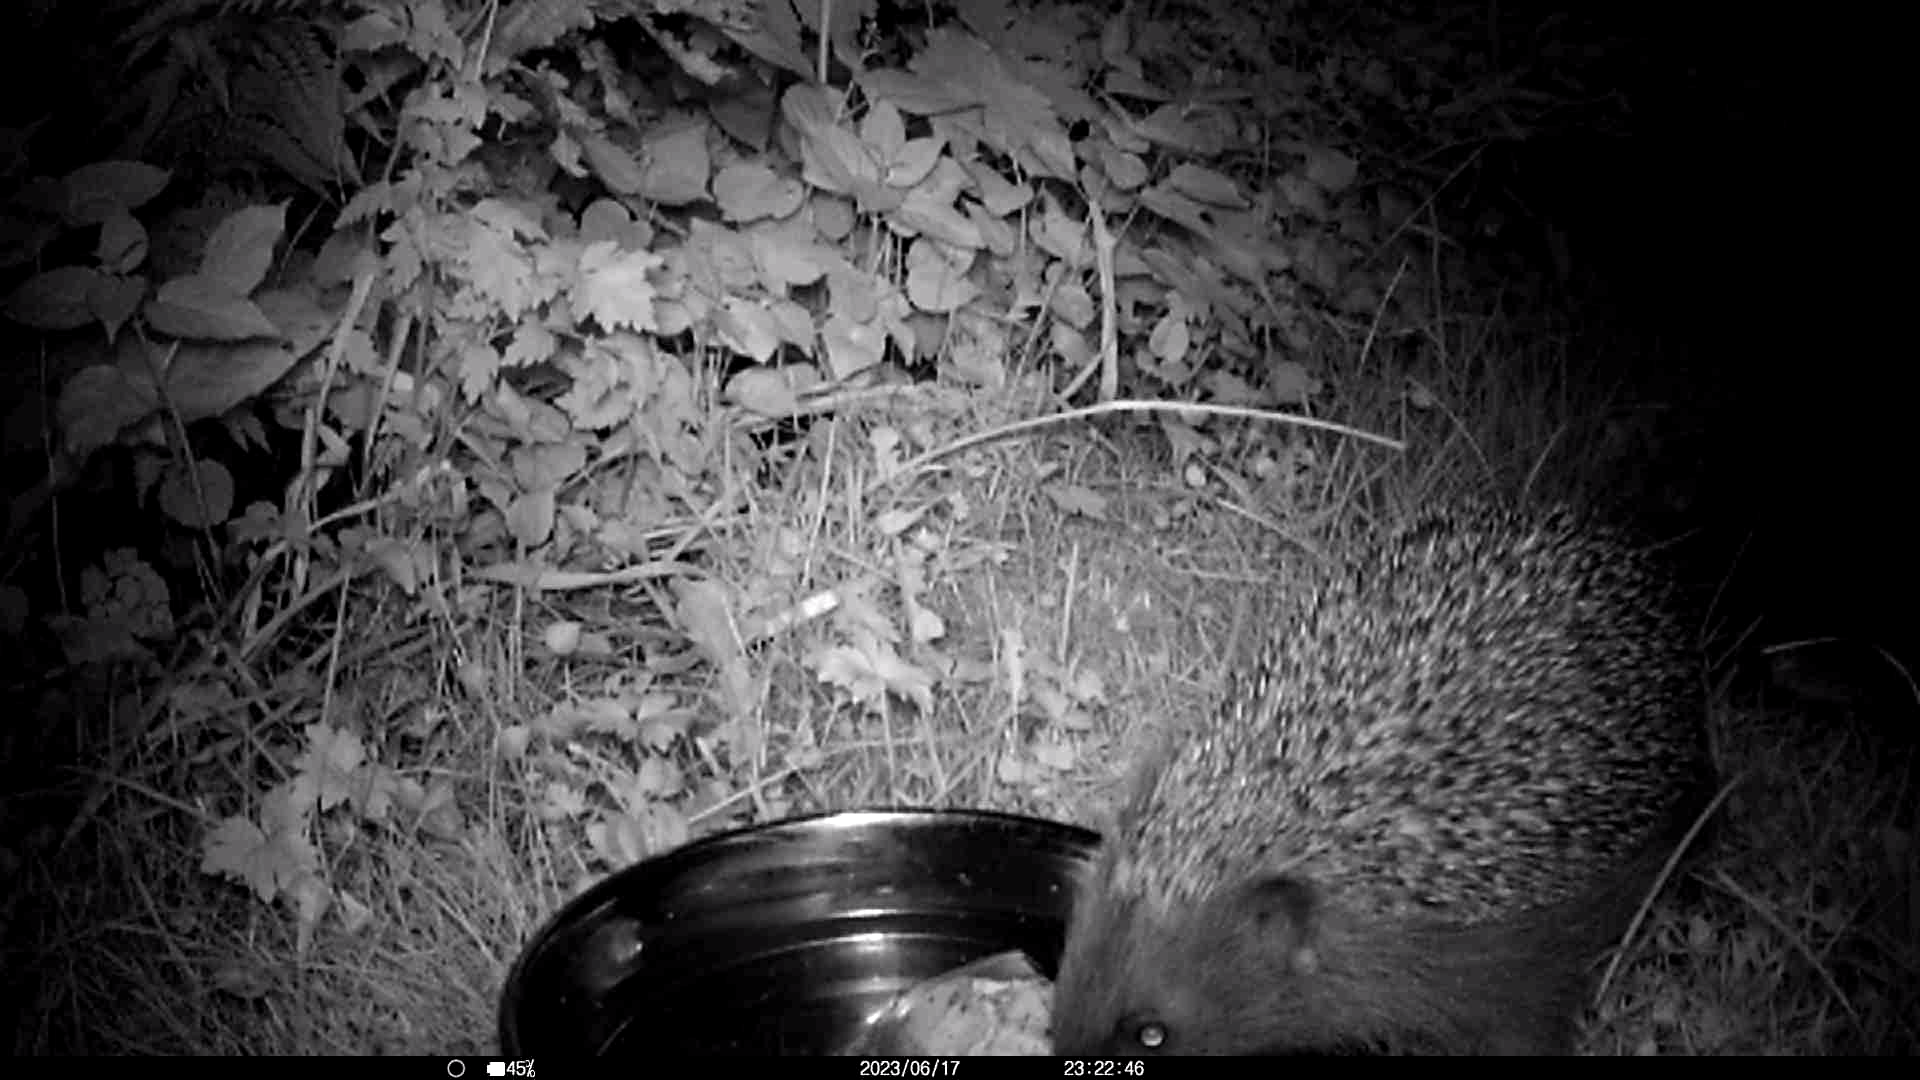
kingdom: Animalia
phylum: Chordata
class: Mammalia
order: Erinaceomorpha
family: Erinaceidae
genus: Erinaceus
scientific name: Erinaceus europaeus
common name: West european hedgehog
